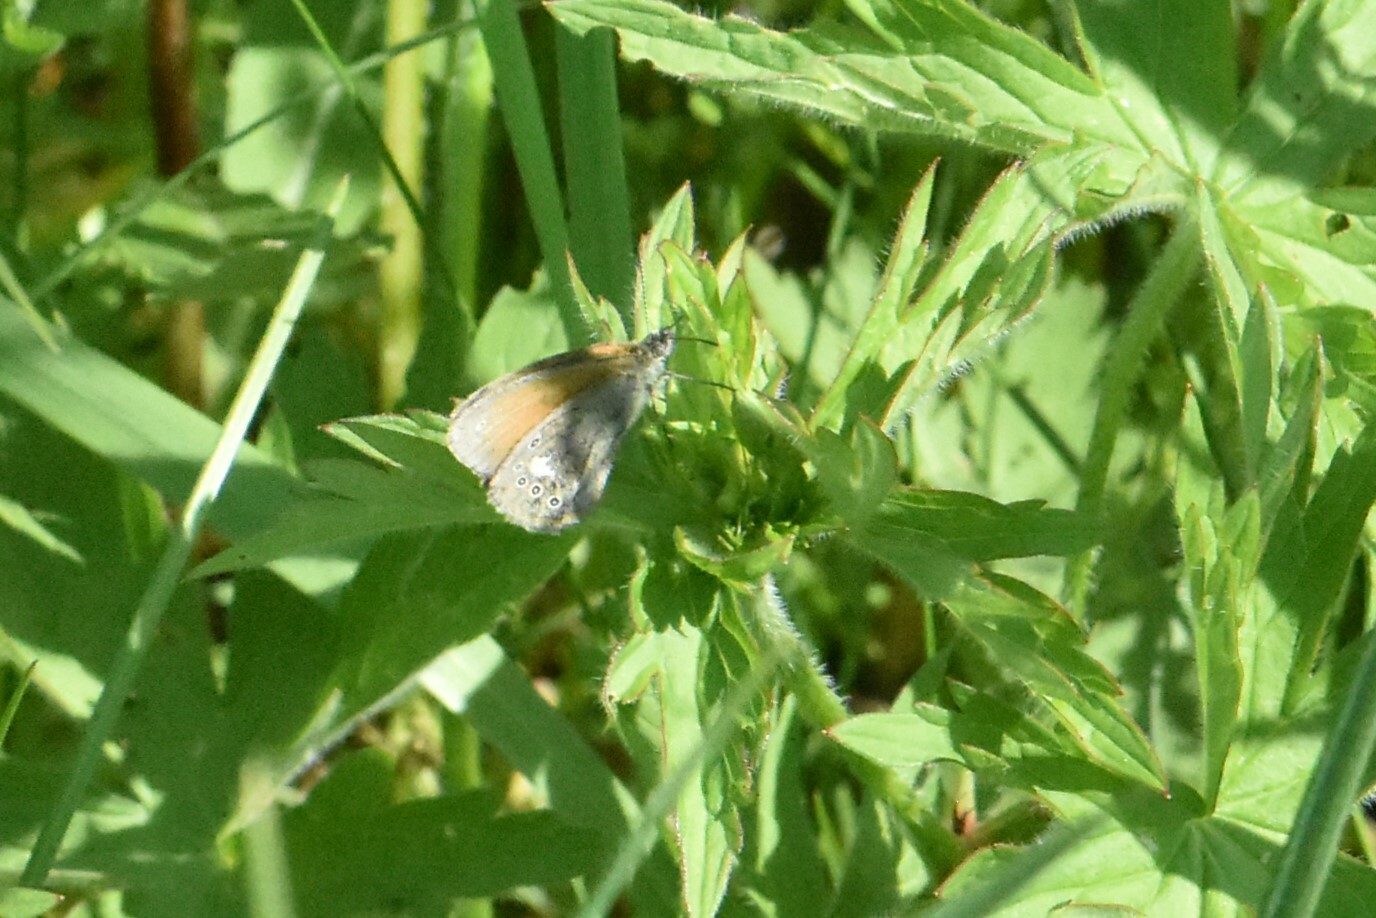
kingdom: Animalia
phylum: Arthropoda
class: Insecta
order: Lepidoptera
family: Nymphalidae
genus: Coenonympha
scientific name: Coenonympha iphis
